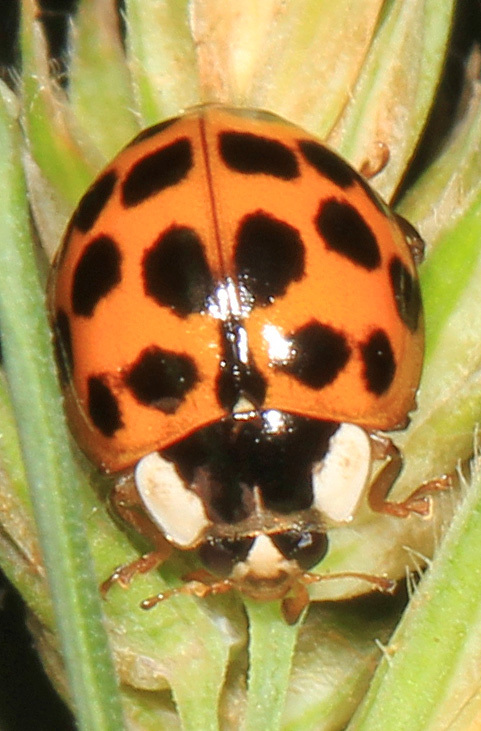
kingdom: Animalia
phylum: Arthropoda
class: Insecta
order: Coleoptera
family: Coccinellidae
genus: Harmonia
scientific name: Harmonia axyridis
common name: Harlequin ladybird
